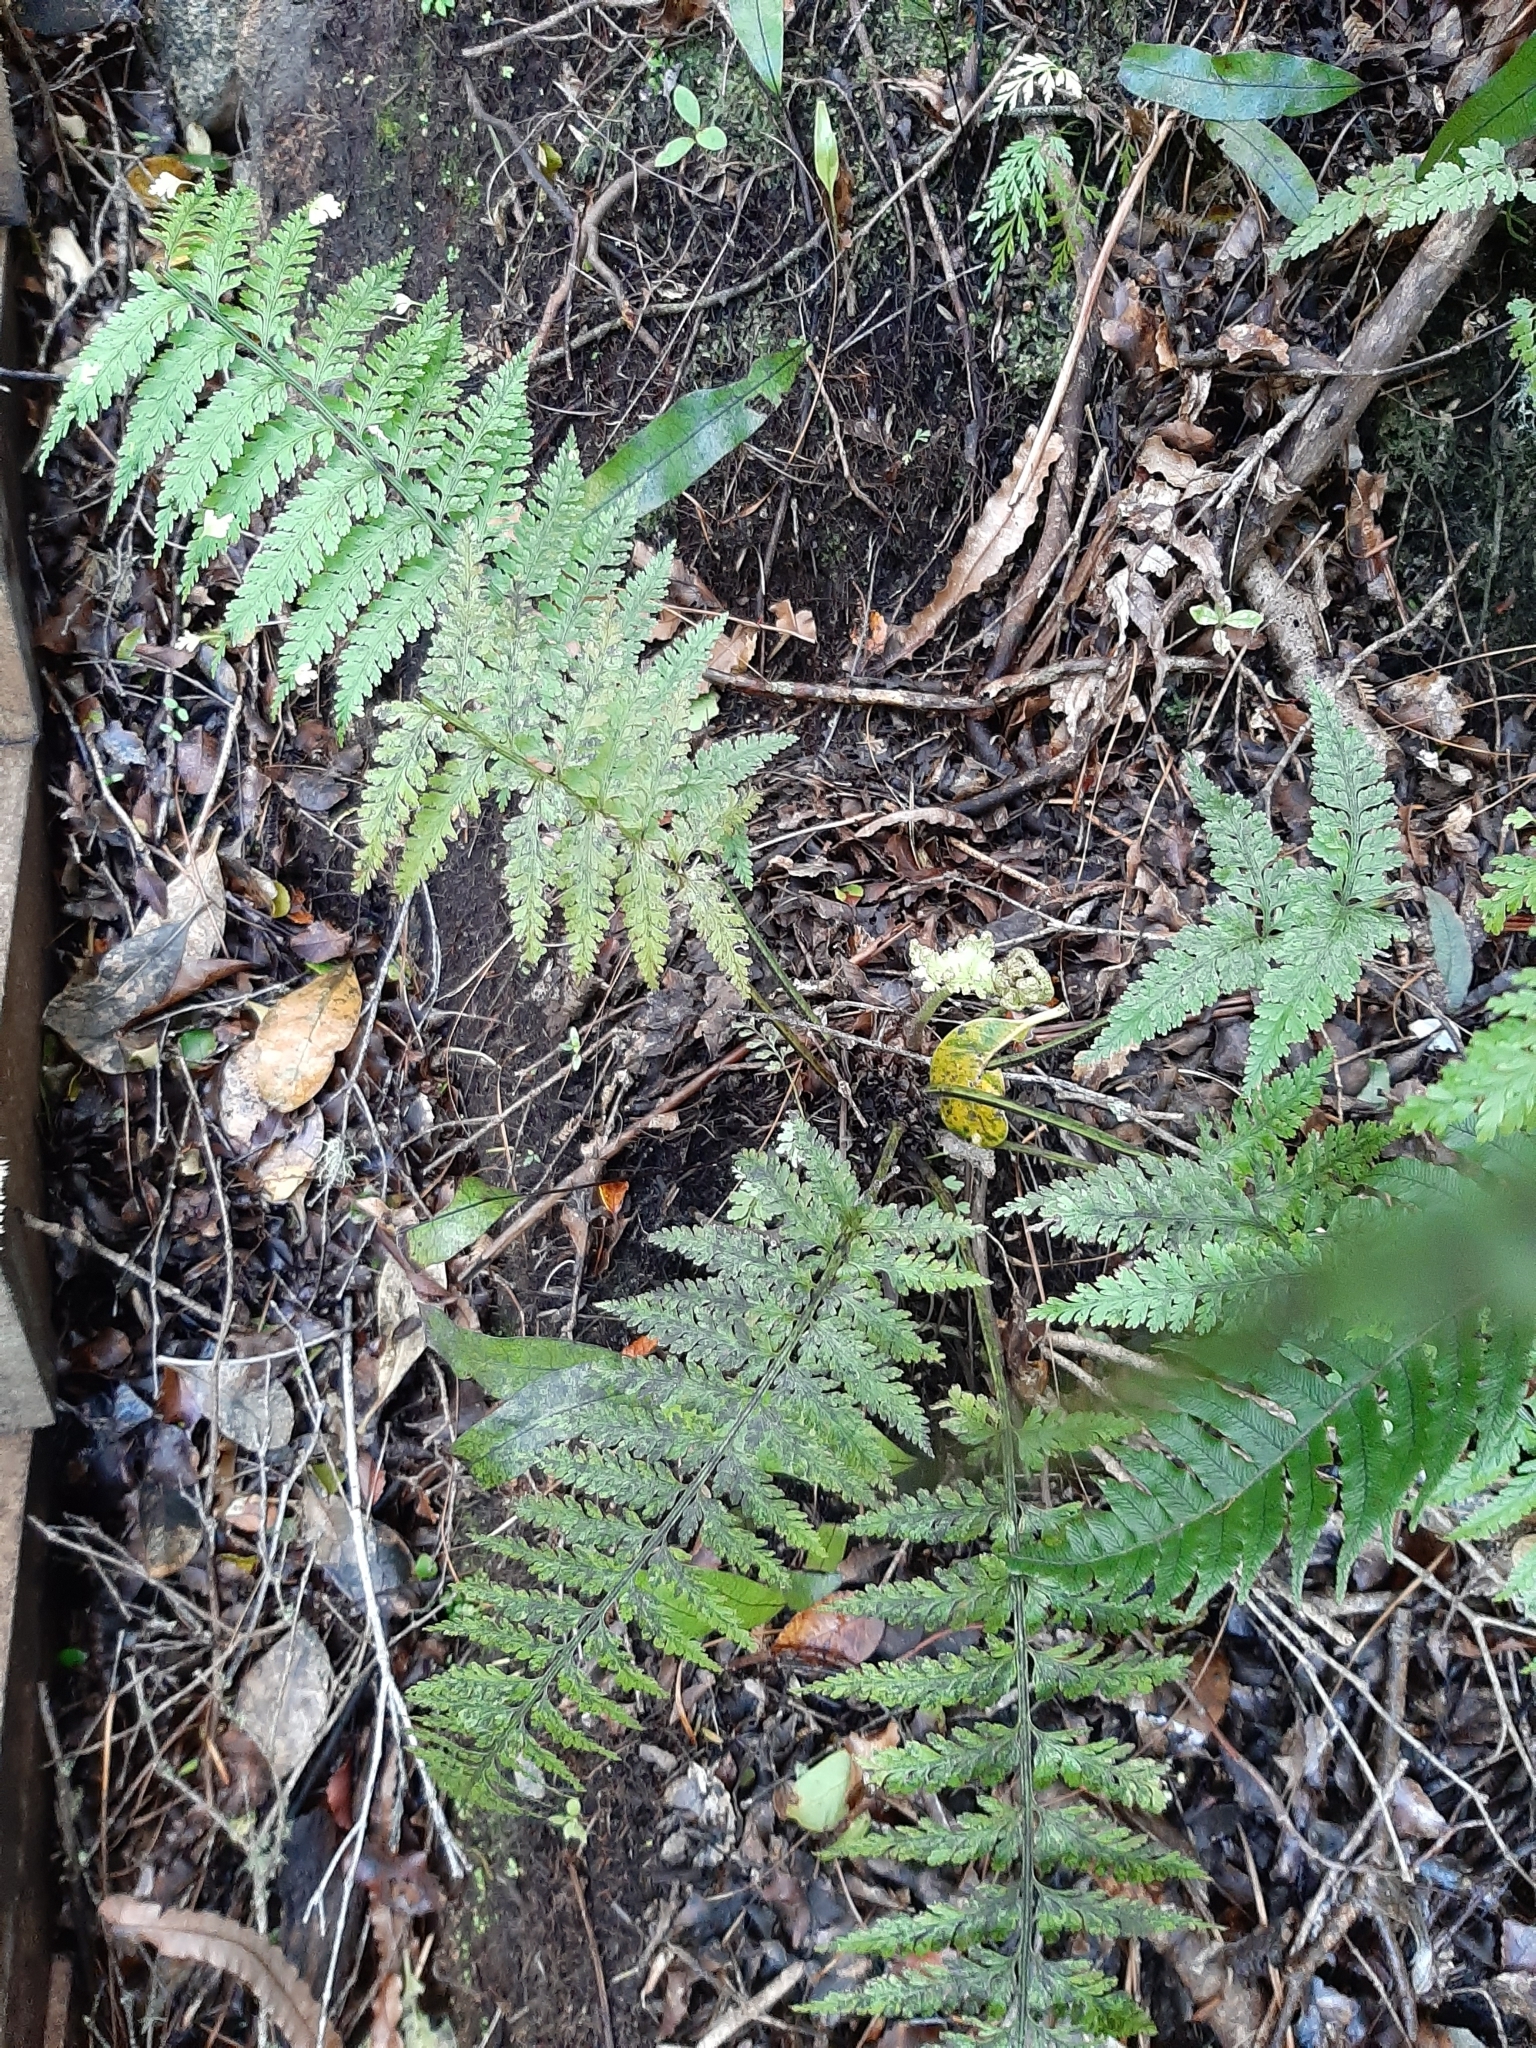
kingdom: Plantae
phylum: Tracheophyta
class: Polypodiopsida
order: Polypodiales
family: Aspleniaceae
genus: Asplenium
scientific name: Asplenium bulbiferum
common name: Mother fern
